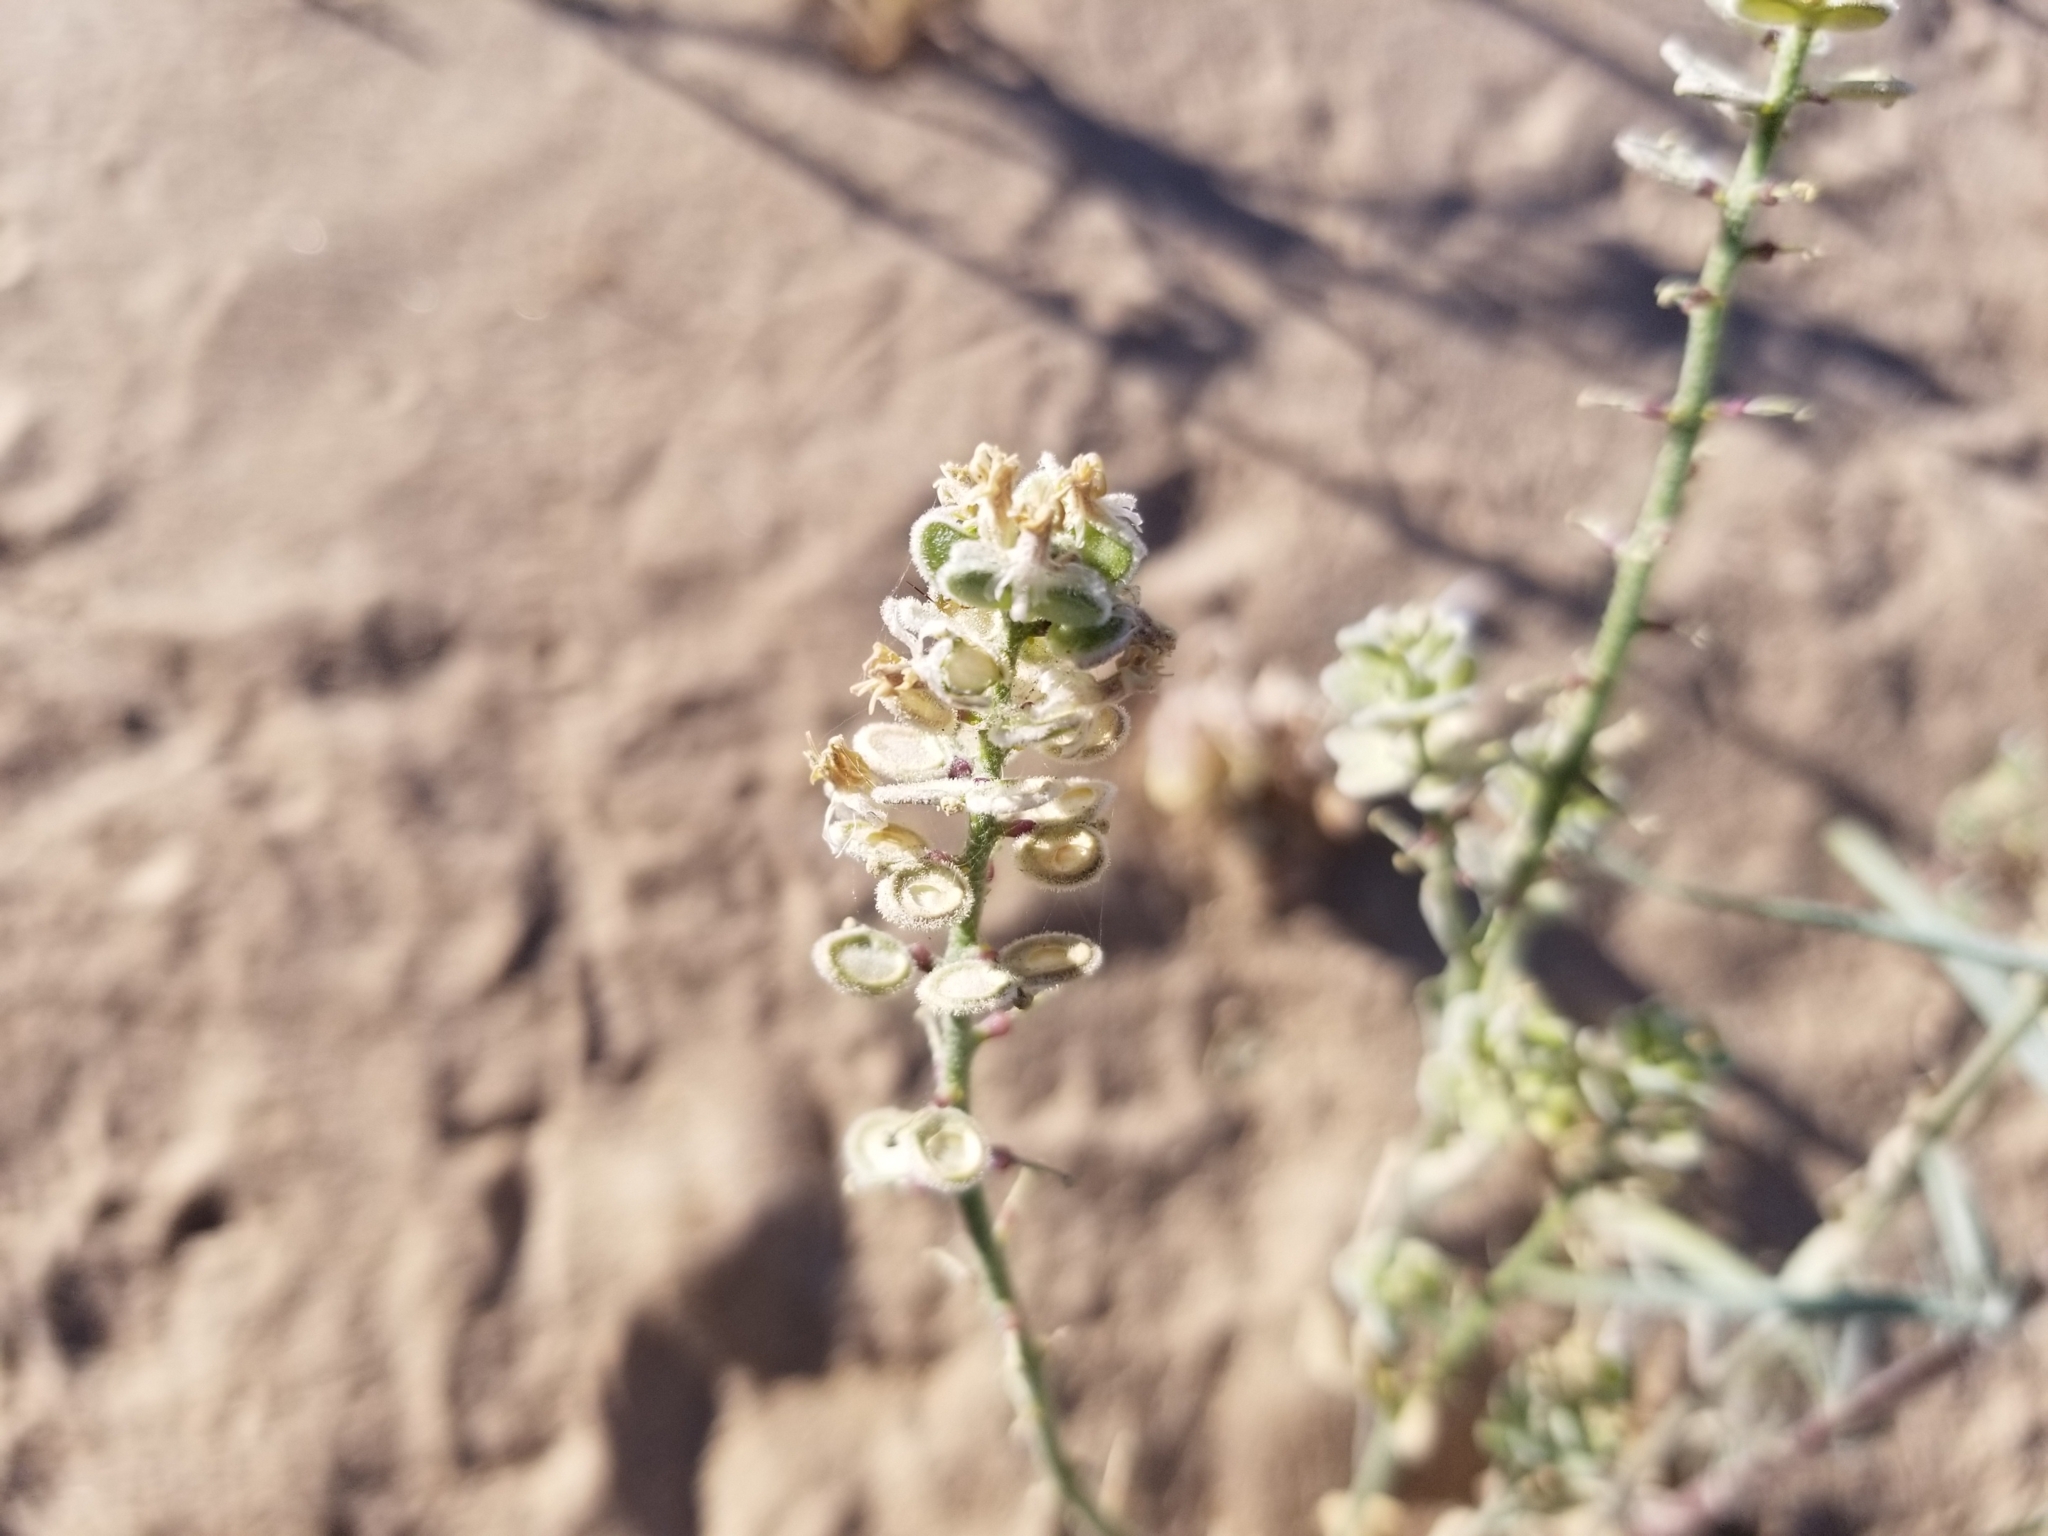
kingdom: Plantae
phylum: Tracheophyta
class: Magnoliopsida
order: Brassicales
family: Brassicaceae
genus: Dithyrea
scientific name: Dithyrea californica
